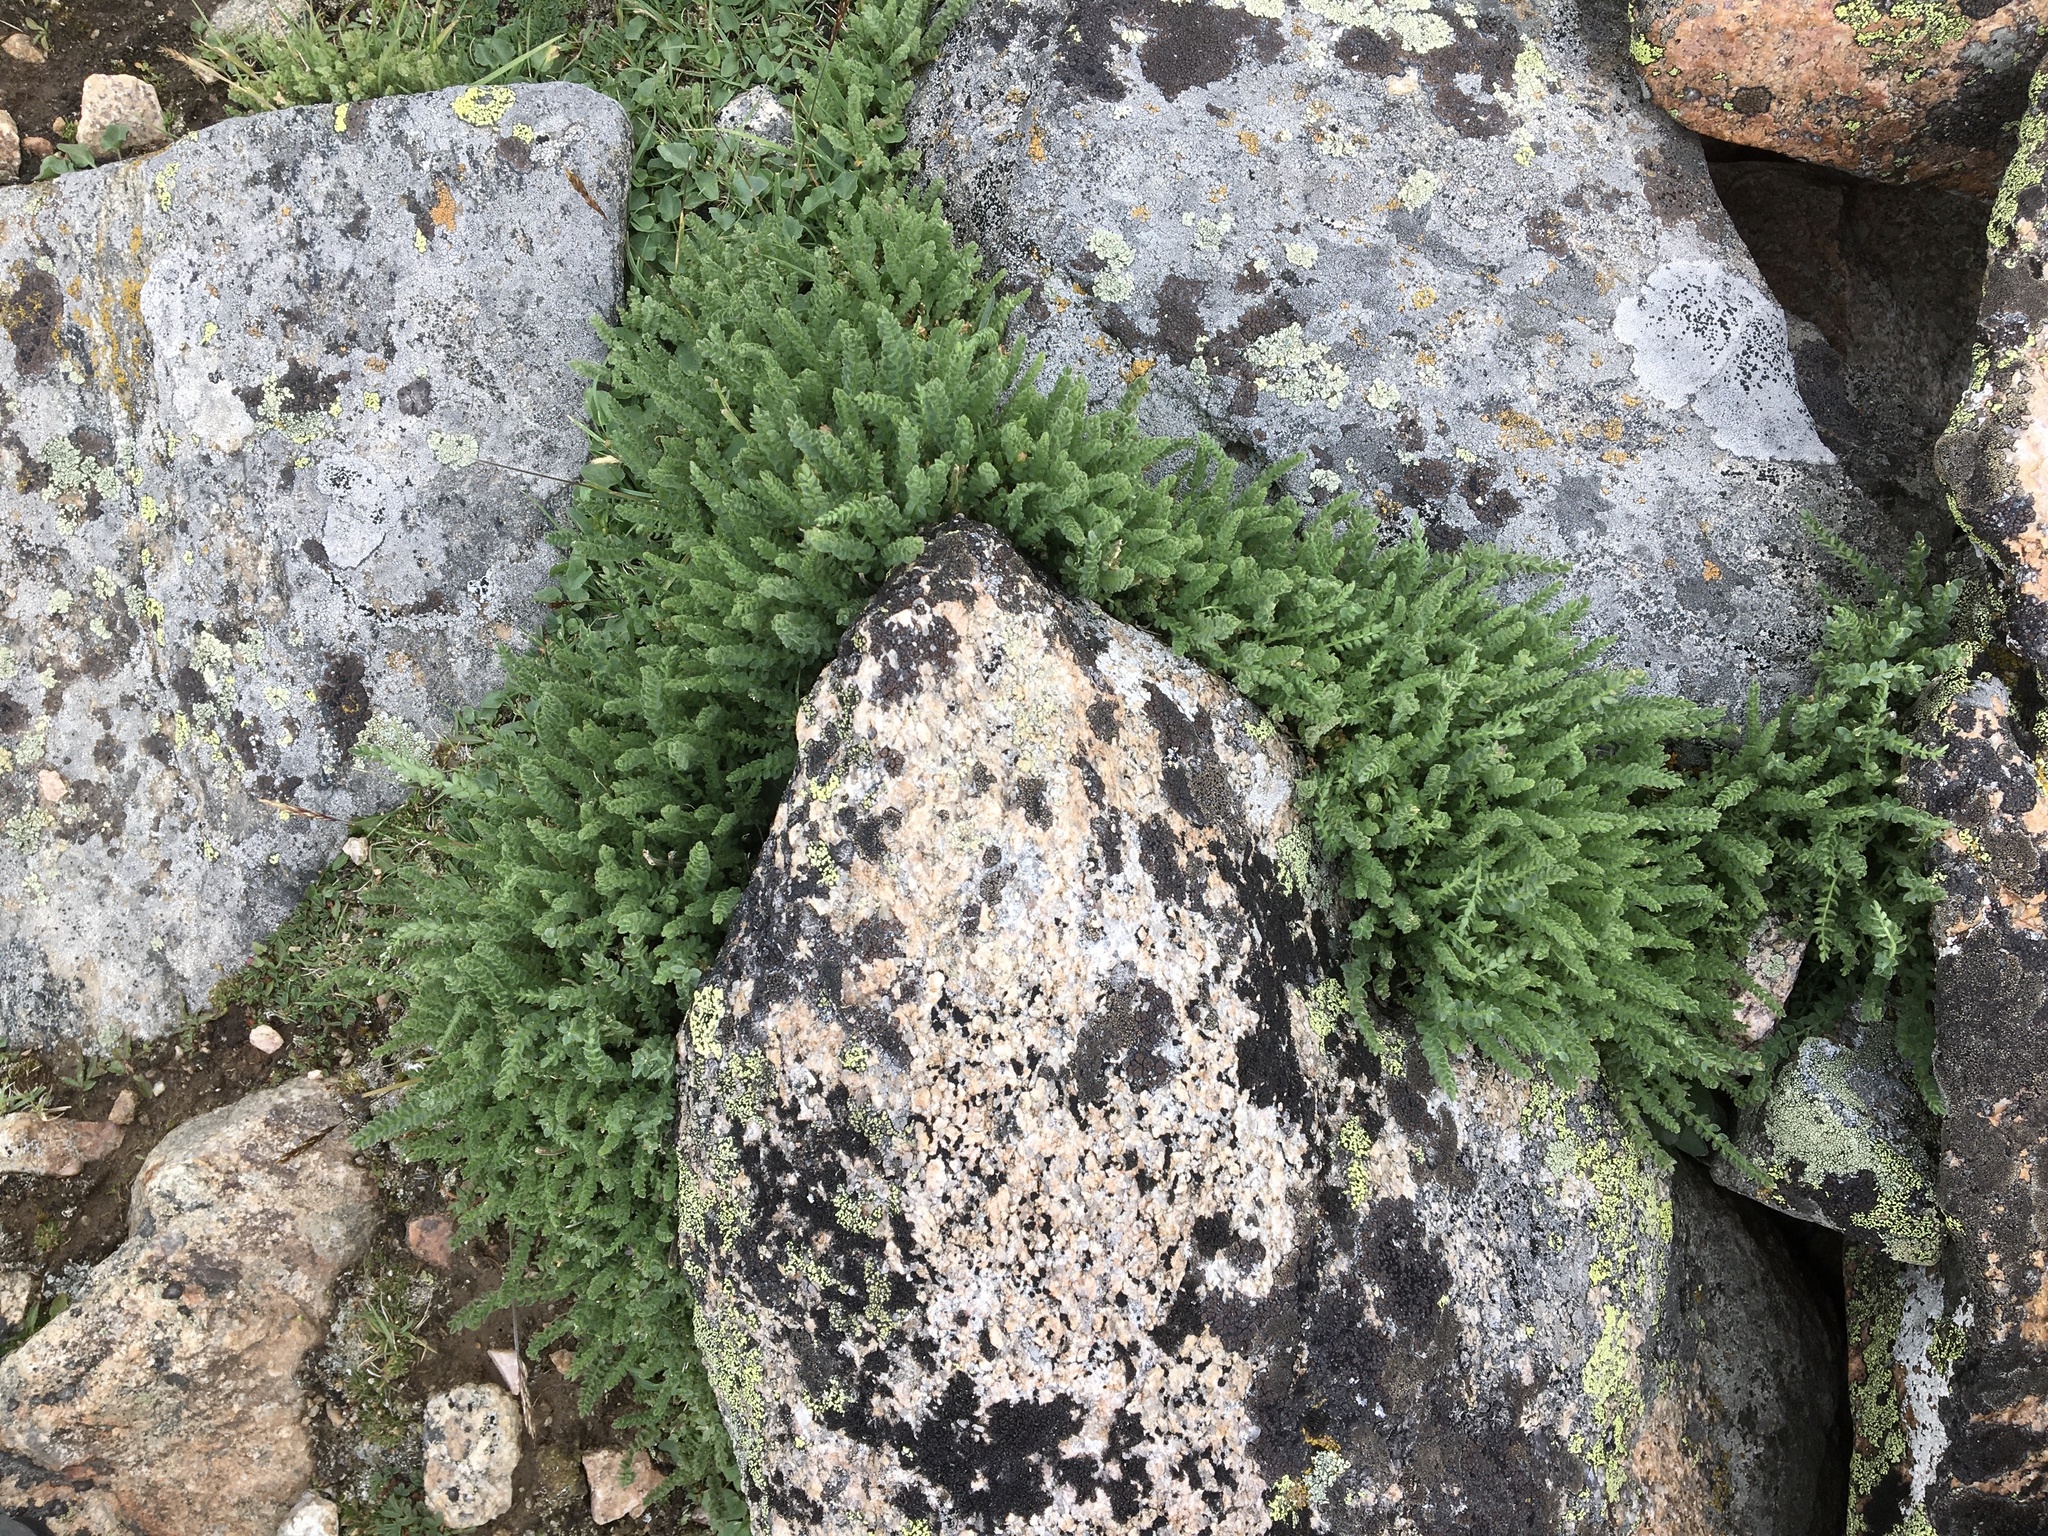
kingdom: Plantae
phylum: Tracheophyta
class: Magnoliopsida
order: Ericales
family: Polemoniaceae
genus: Polemonium
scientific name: Polemonium viscosum
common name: Skunk jacob's-ladder
